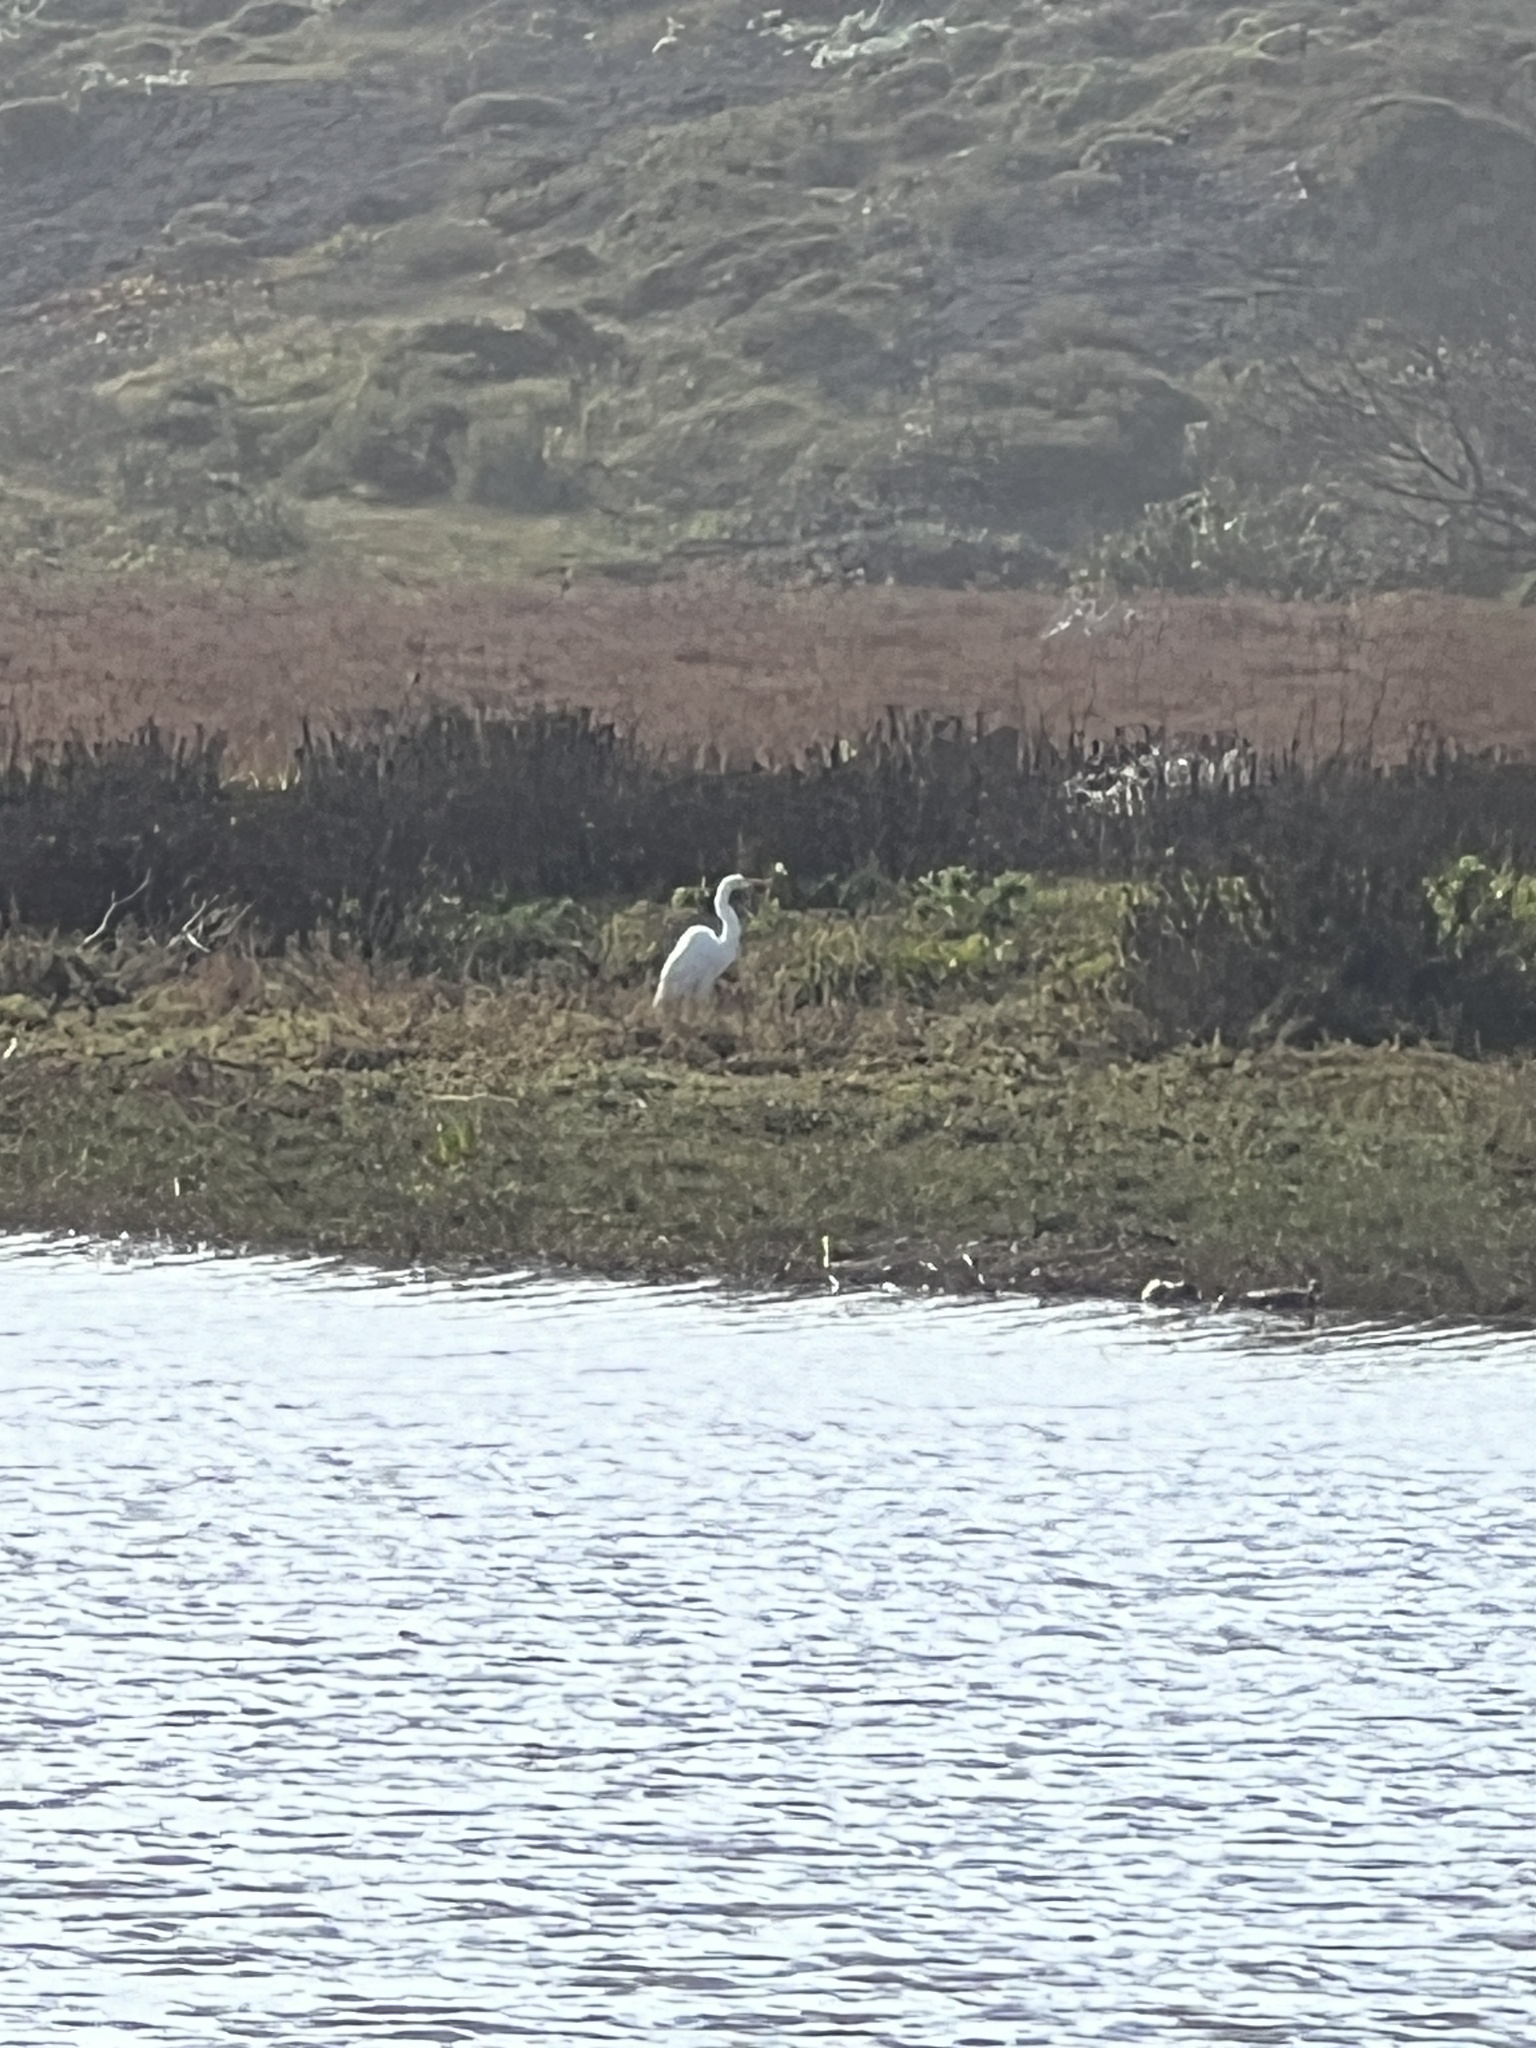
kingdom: Animalia
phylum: Chordata
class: Aves
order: Pelecaniformes
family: Ardeidae
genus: Ardea
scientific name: Ardea alba
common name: Great egret
